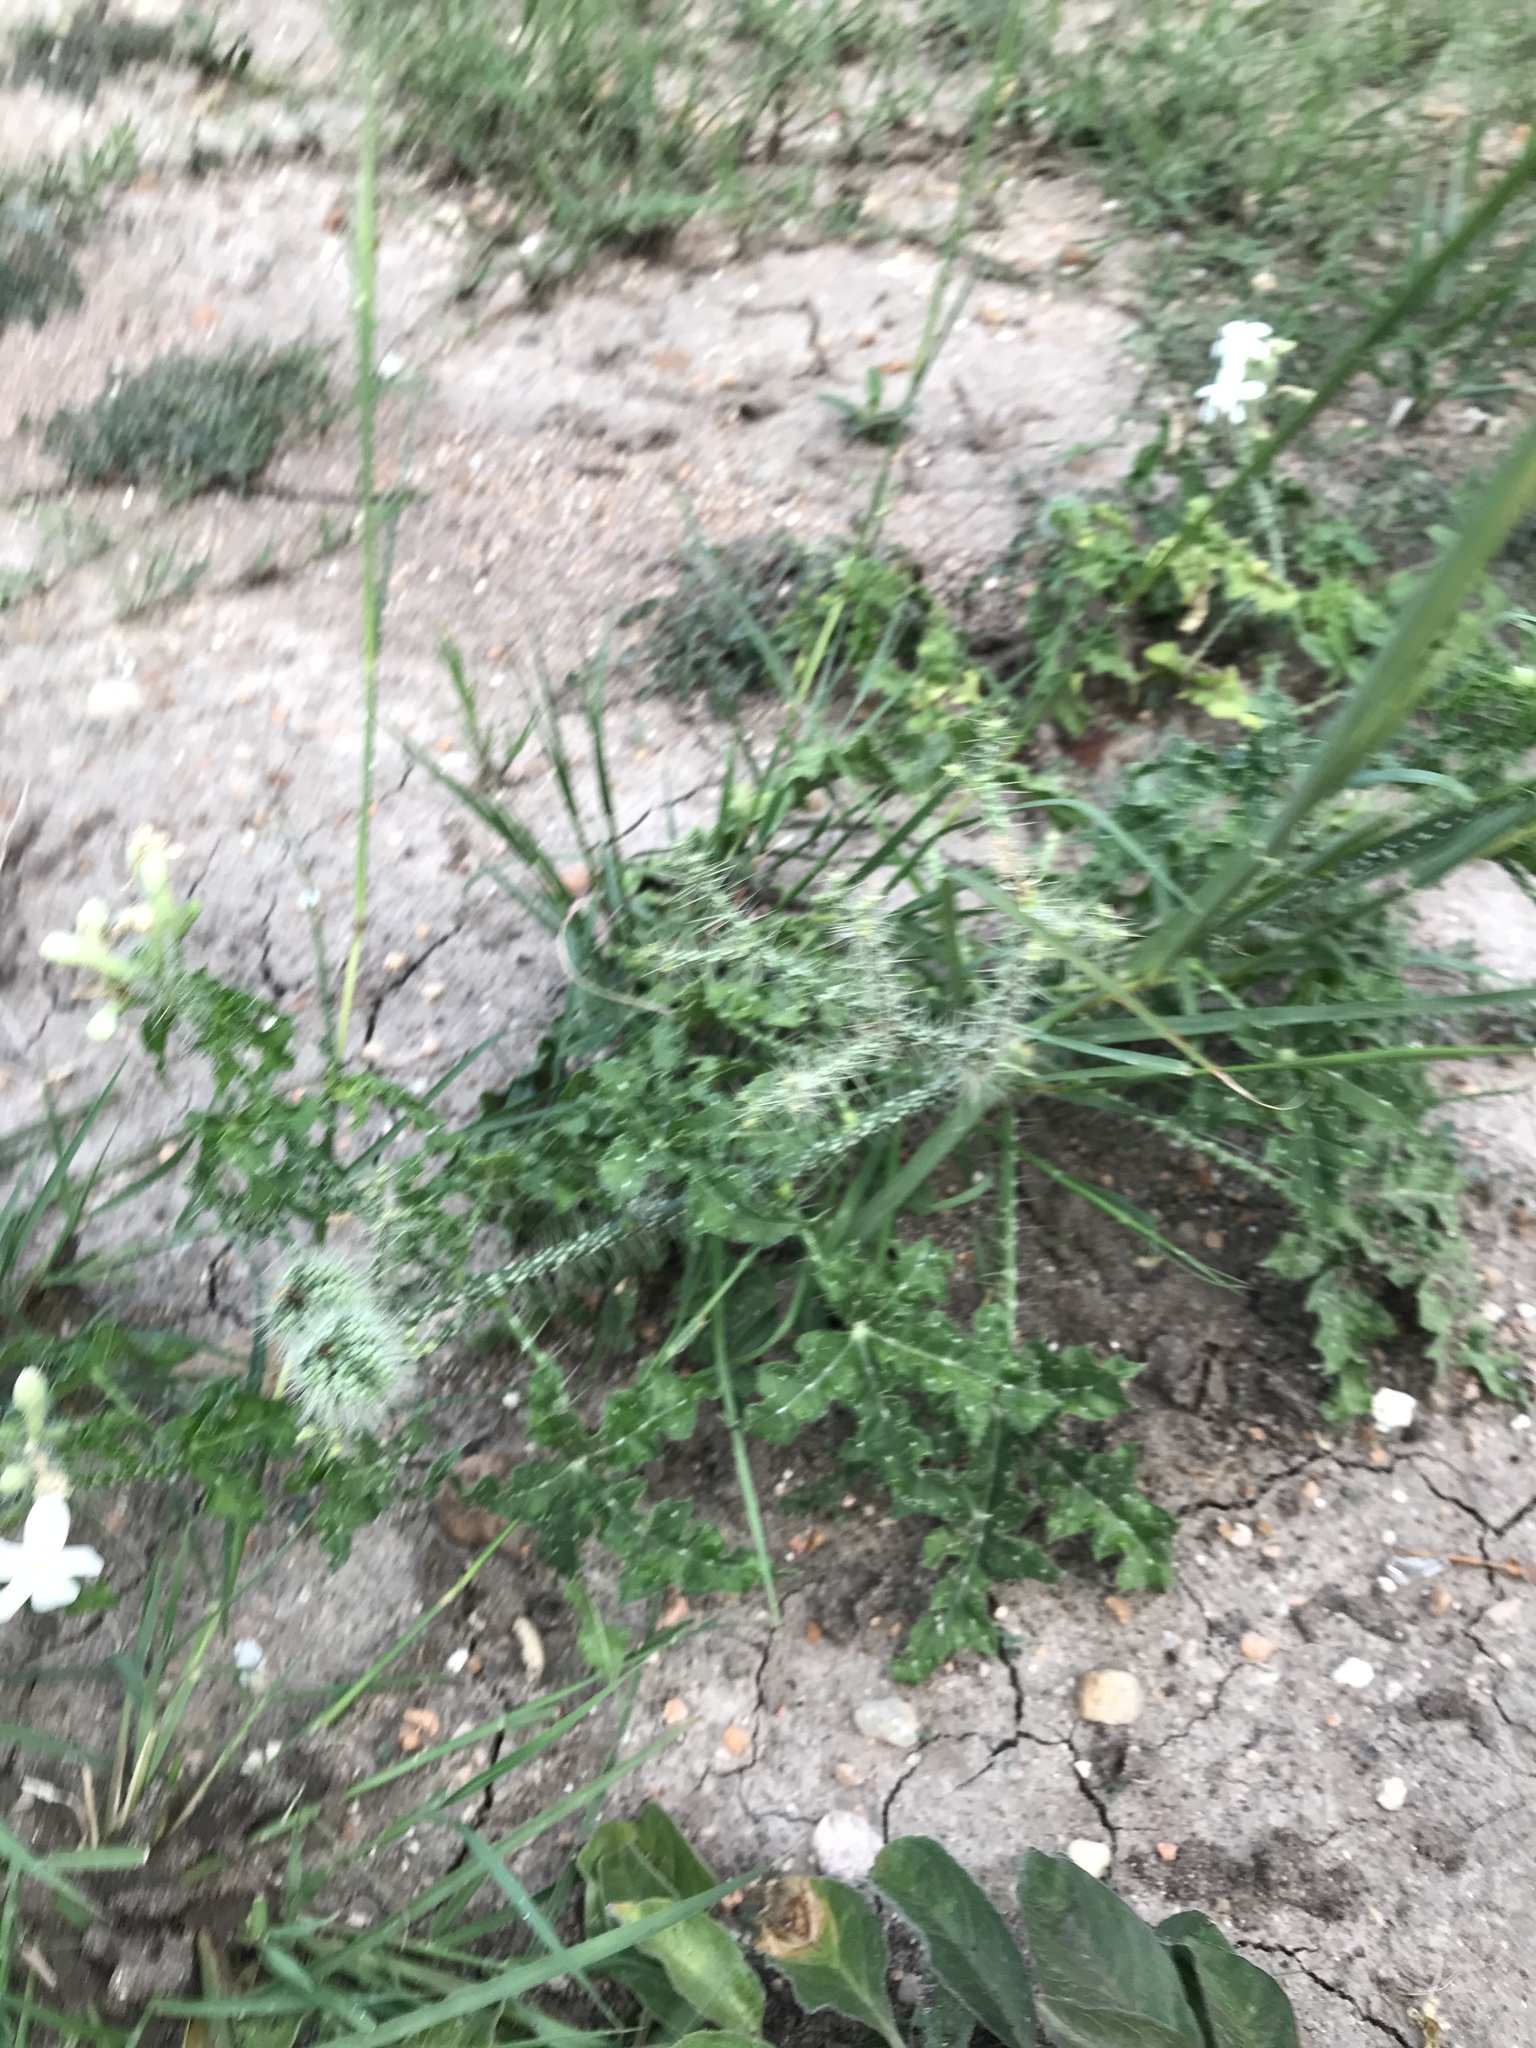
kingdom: Plantae
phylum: Tracheophyta
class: Magnoliopsida
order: Malpighiales
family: Euphorbiaceae
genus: Cnidoscolus
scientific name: Cnidoscolus texanus
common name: Texas bull-nettle
